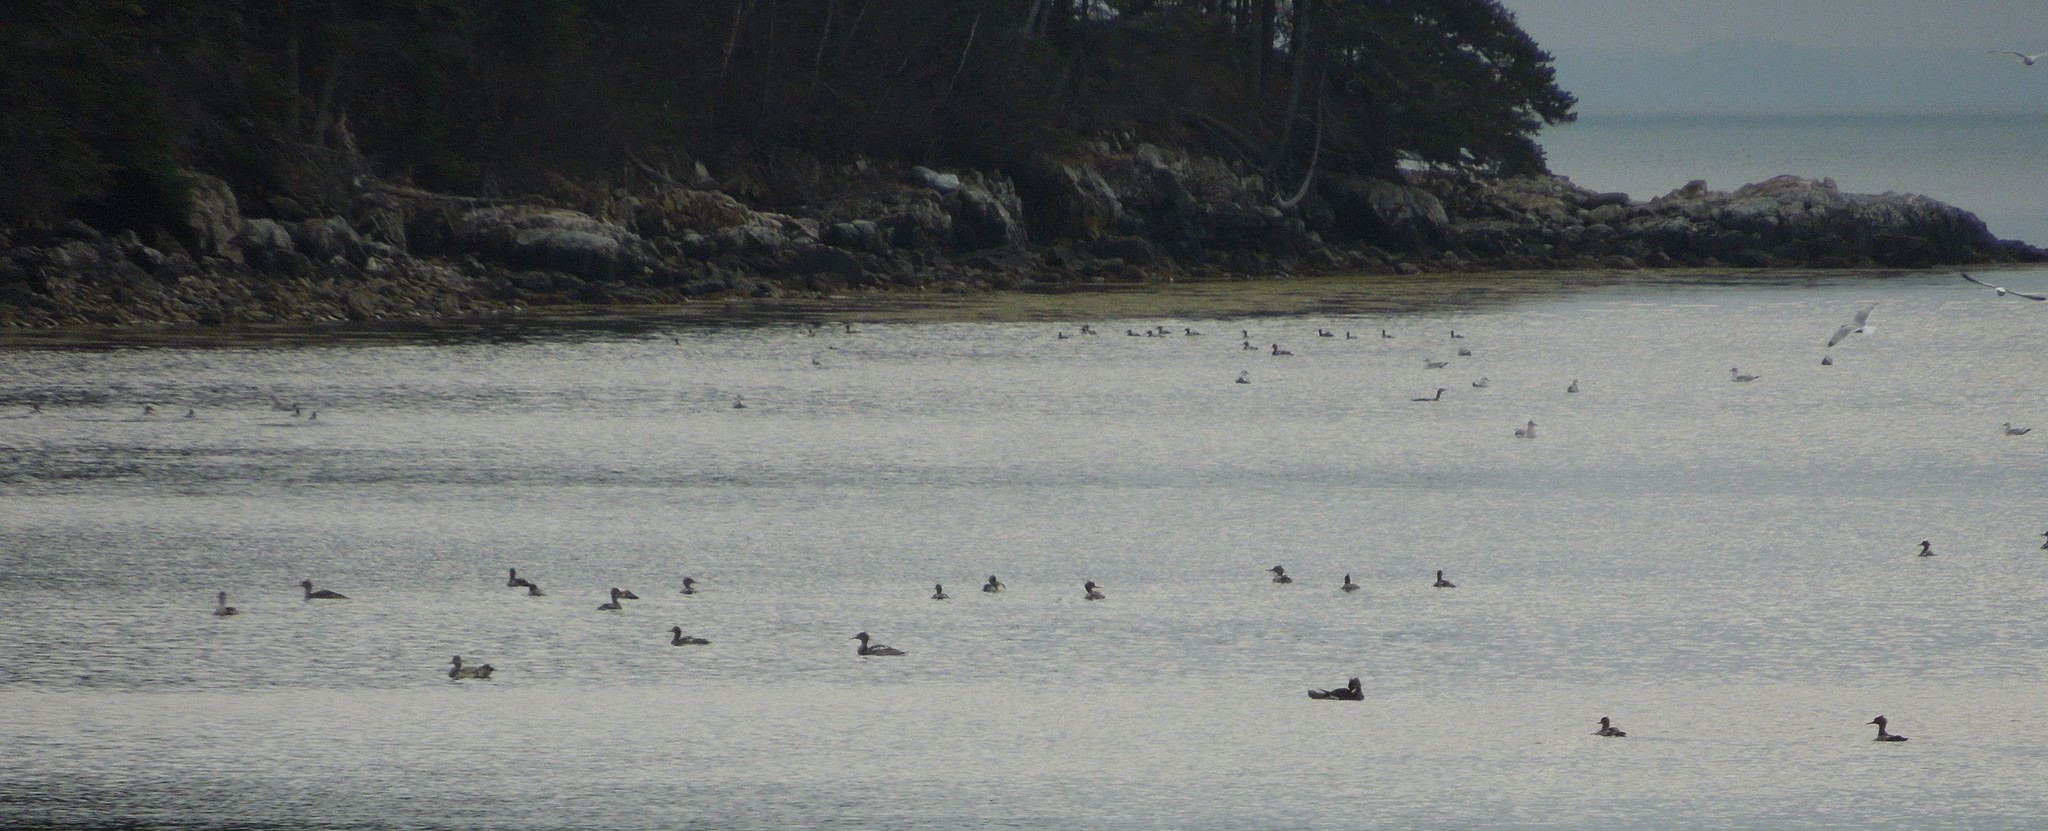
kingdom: Animalia
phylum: Chordata
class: Aves
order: Anseriformes
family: Anatidae
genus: Mergus
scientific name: Mergus serrator
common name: Red-breasted merganser
